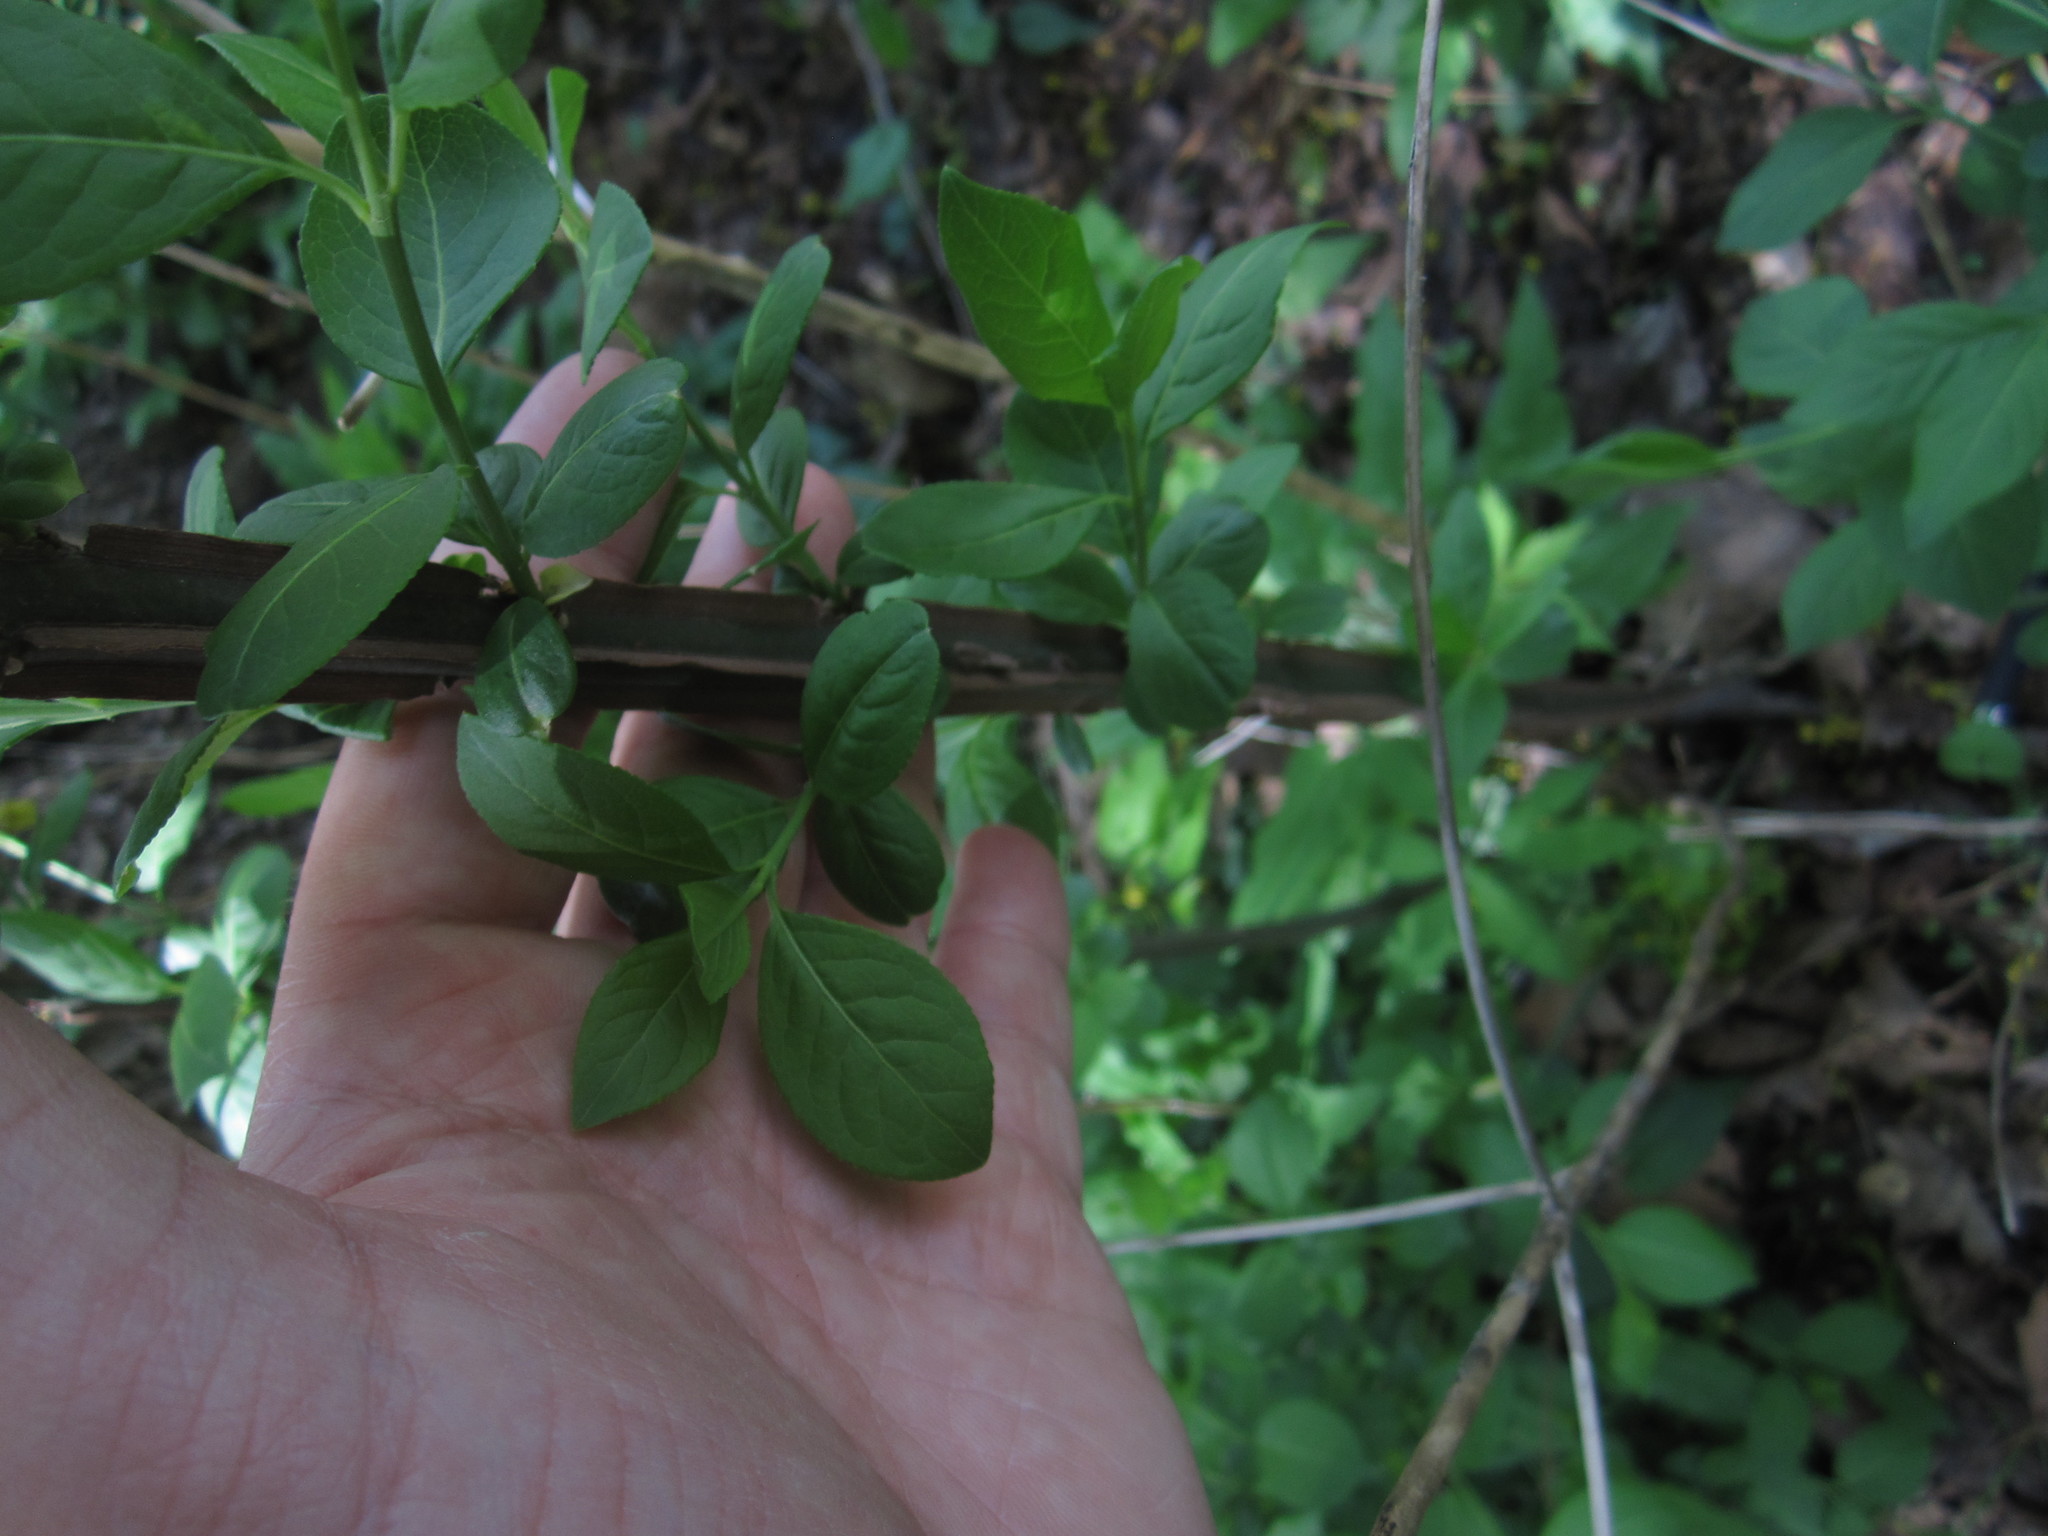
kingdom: Plantae
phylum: Tracheophyta
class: Magnoliopsida
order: Celastrales
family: Celastraceae
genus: Euonymus
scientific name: Euonymus alatus
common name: Winged euonymus
